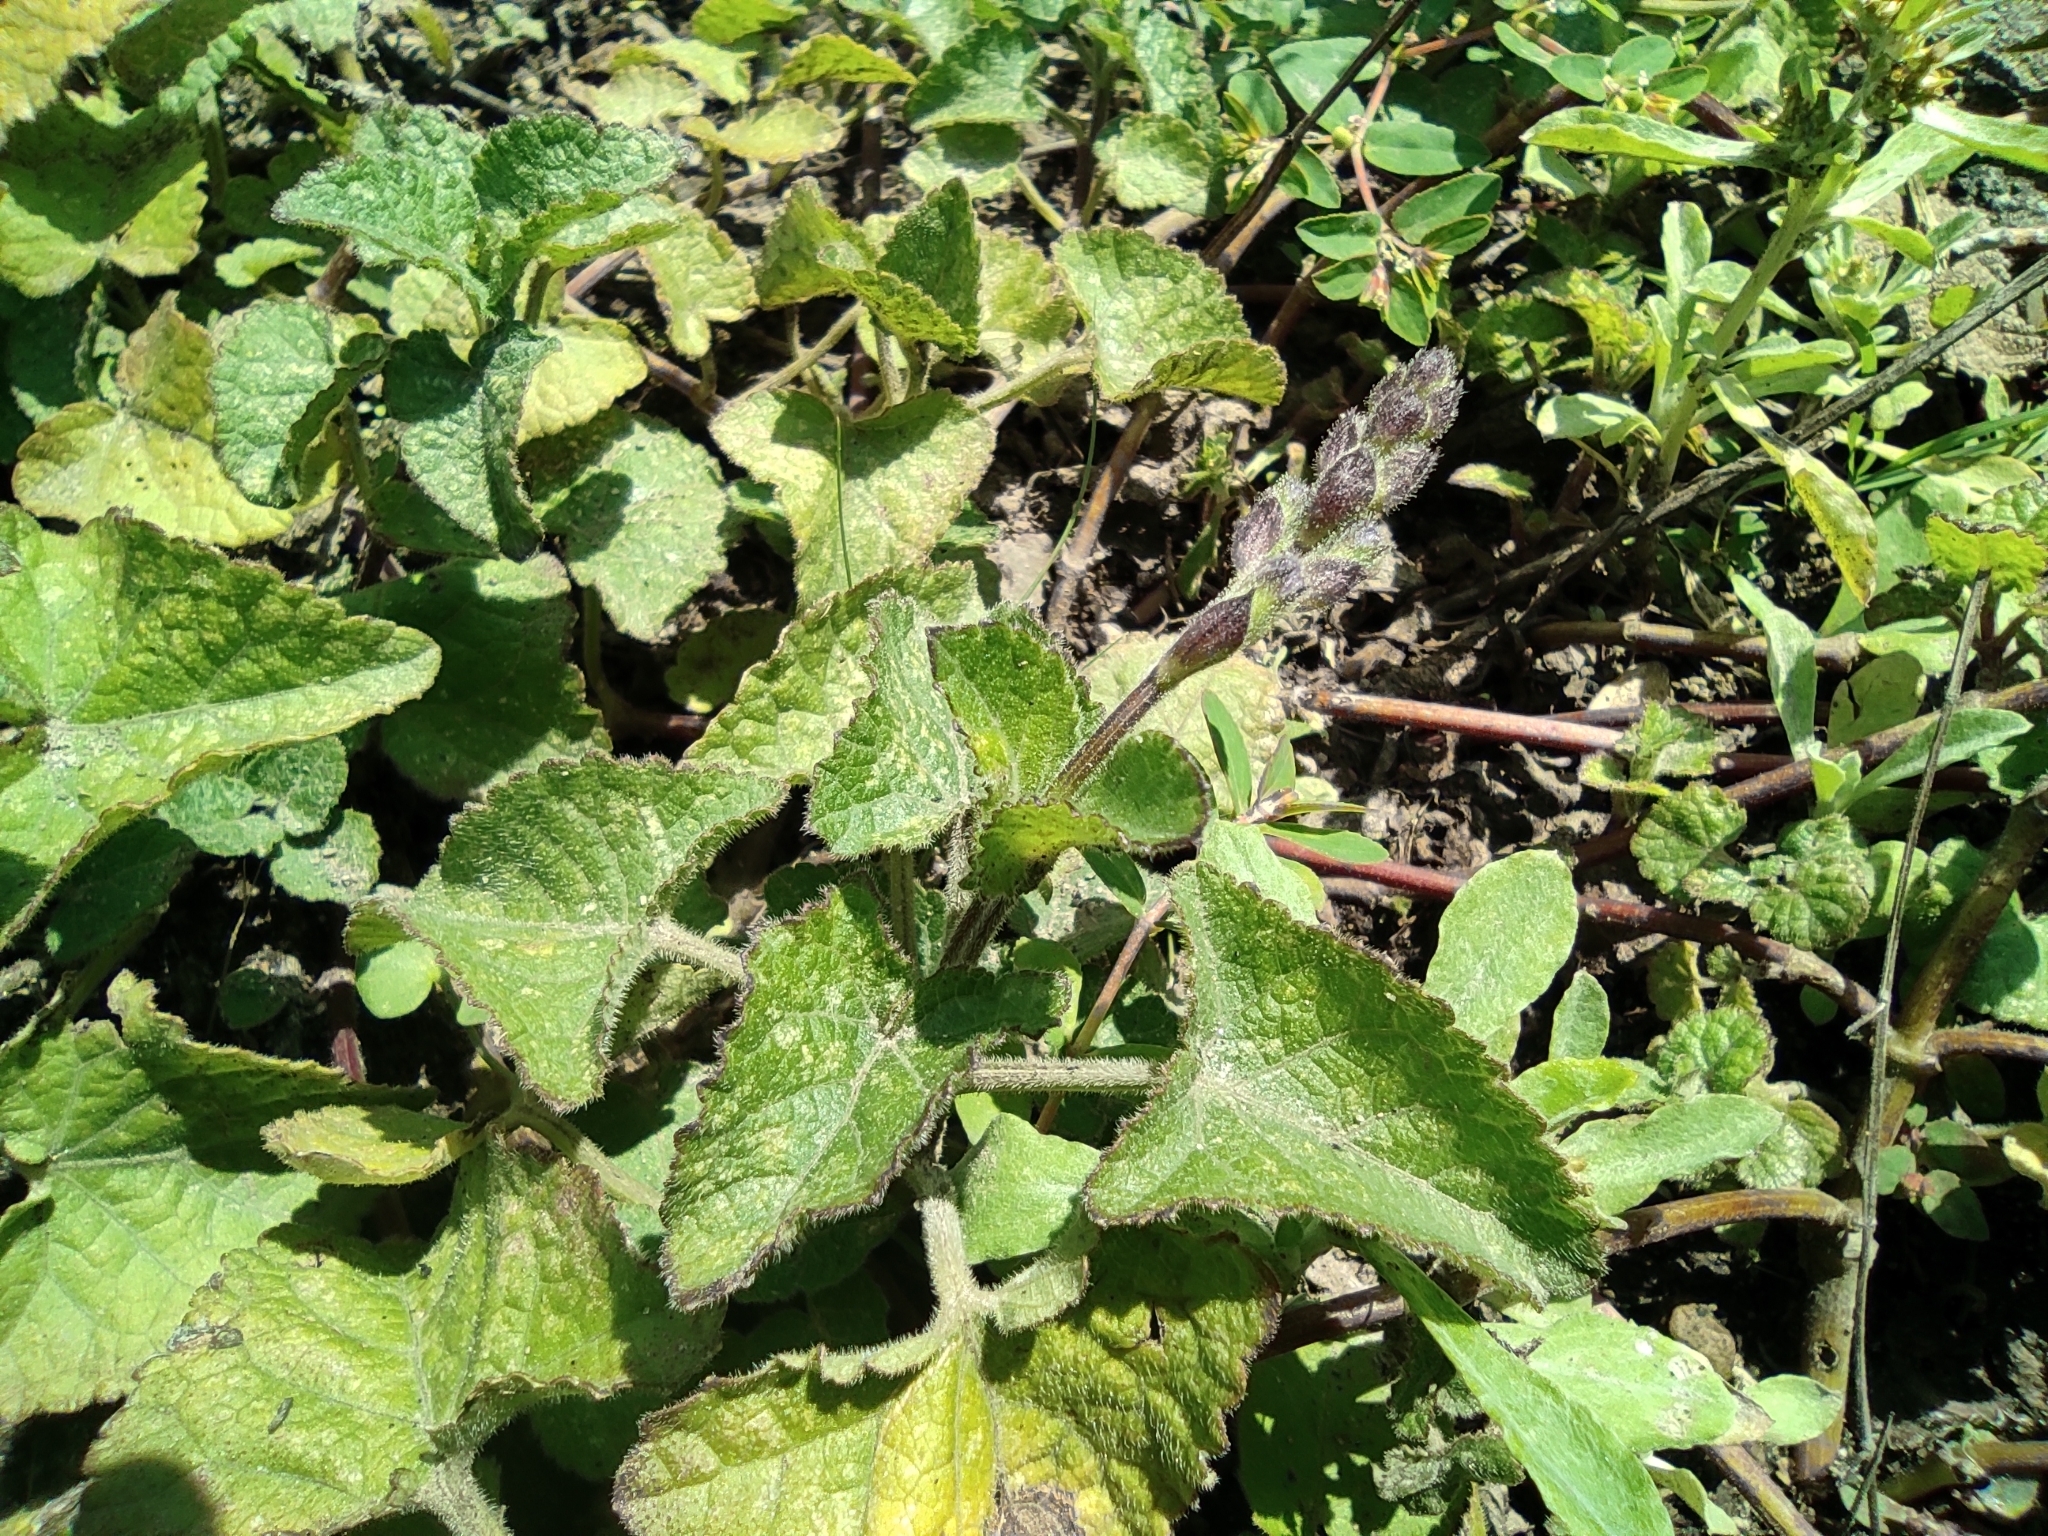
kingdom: Plantae
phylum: Tracheophyta
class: Magnoliopsida
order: Lamiales
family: Lamiaceae
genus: Salvia
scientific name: Salvia scutellarioides
